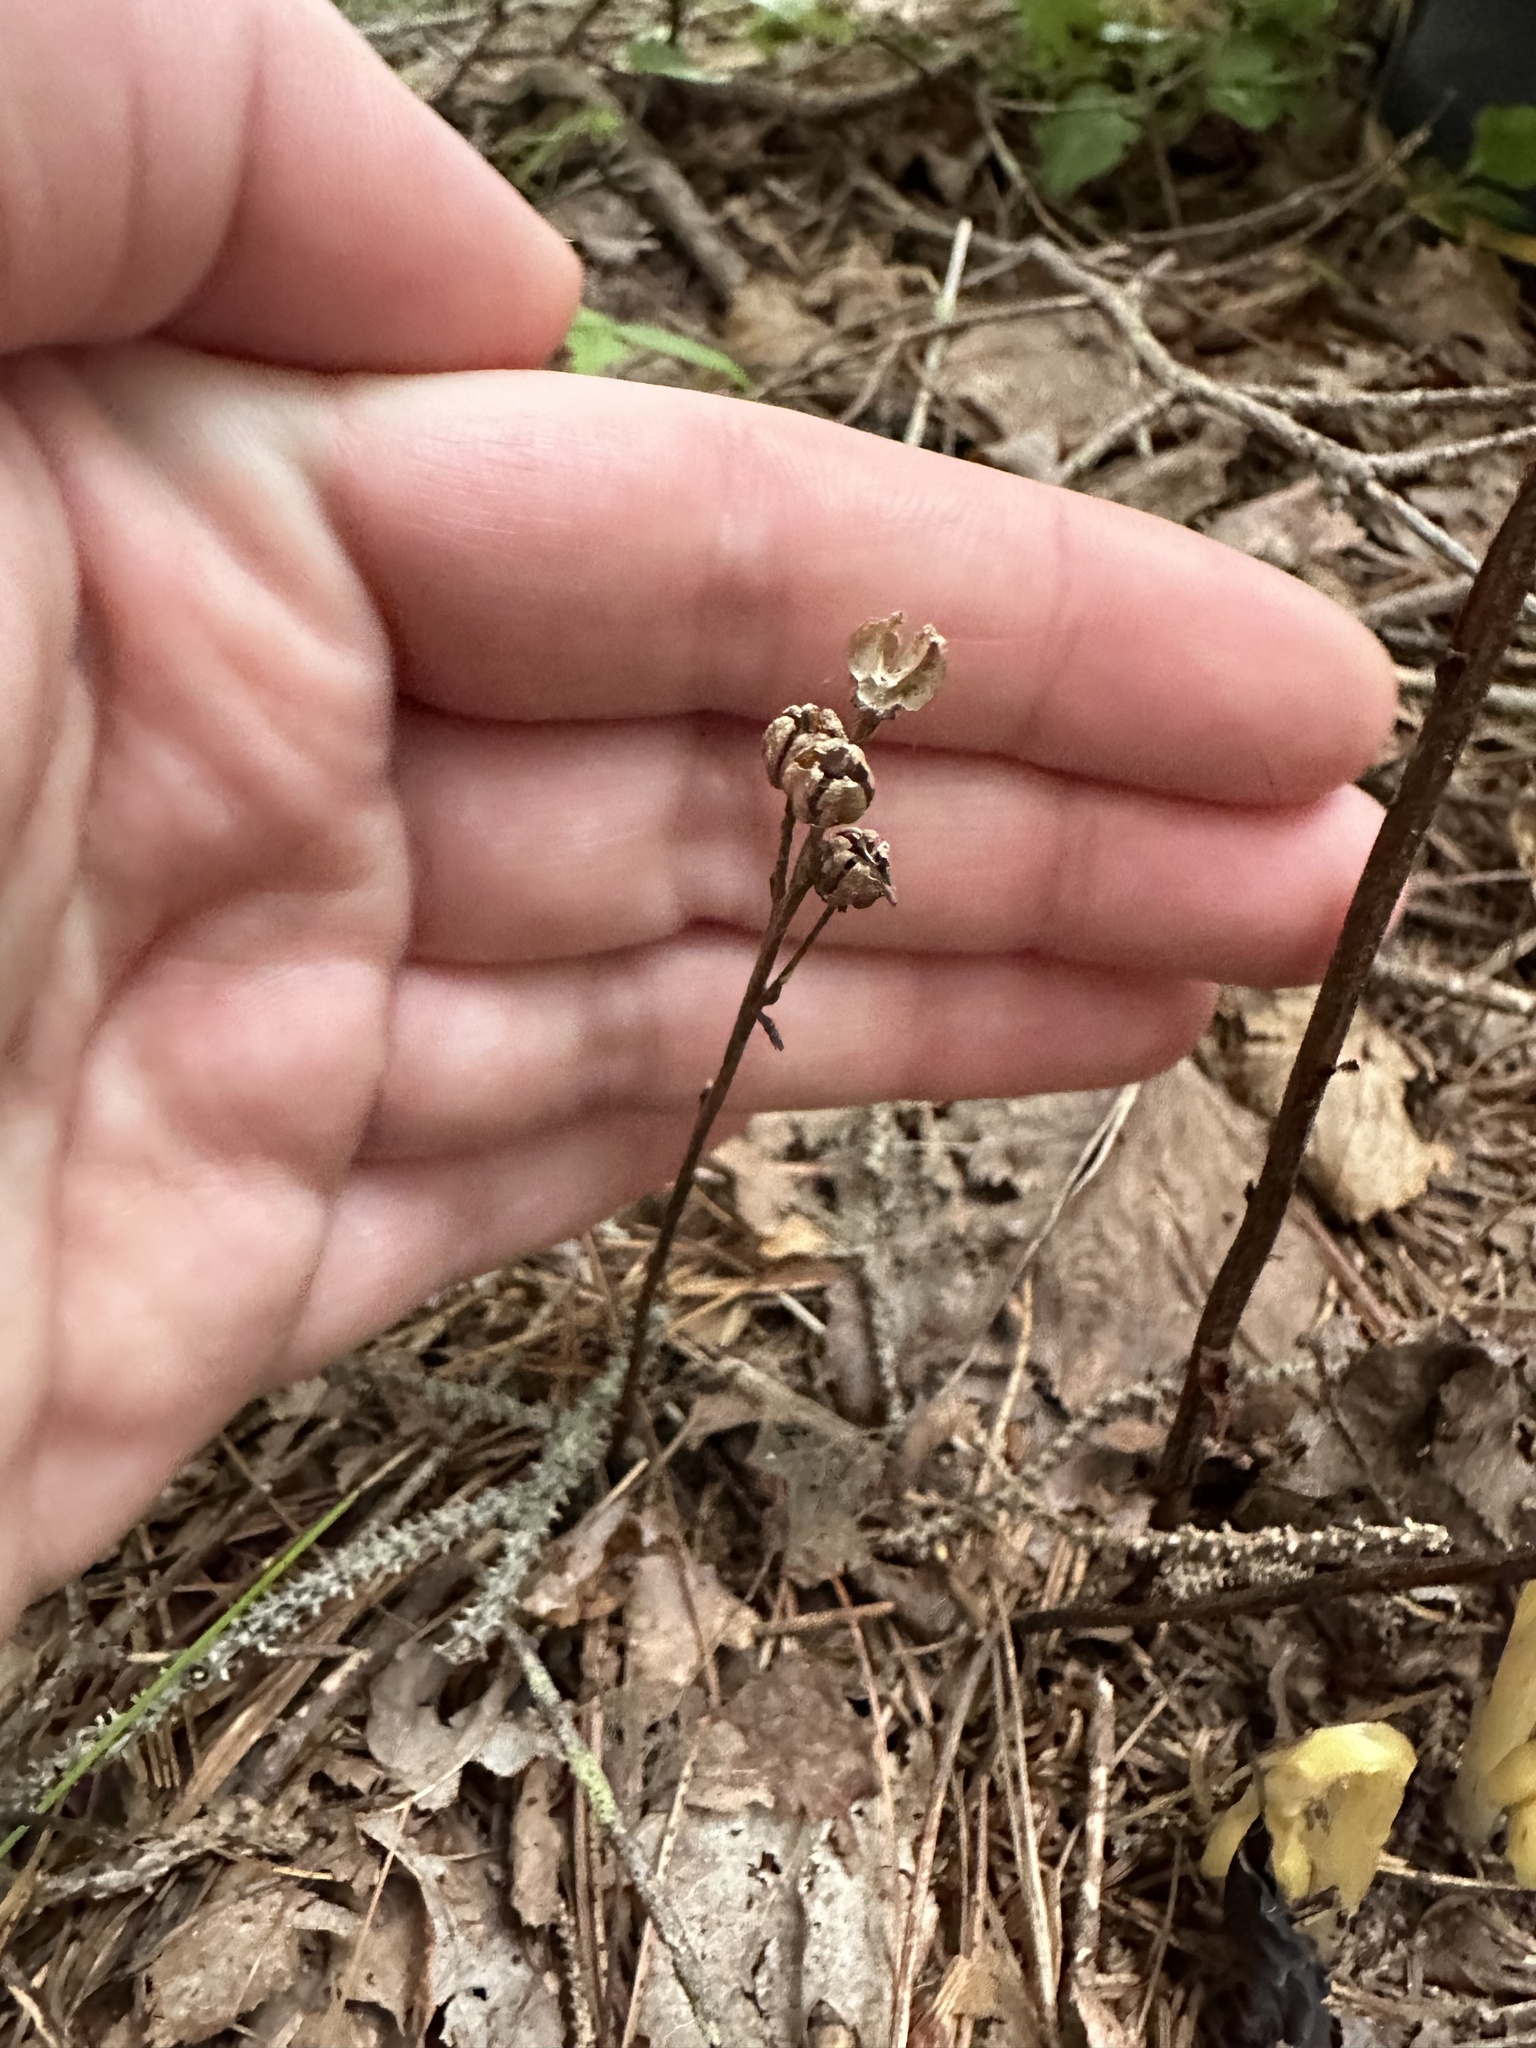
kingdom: Plantae
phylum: Tracheophyta
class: Magnoliopsida
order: Ericales
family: Ericaceae
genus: Hypopitys
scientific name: Hypopitys monotropa
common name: Yellow bird's-nest
